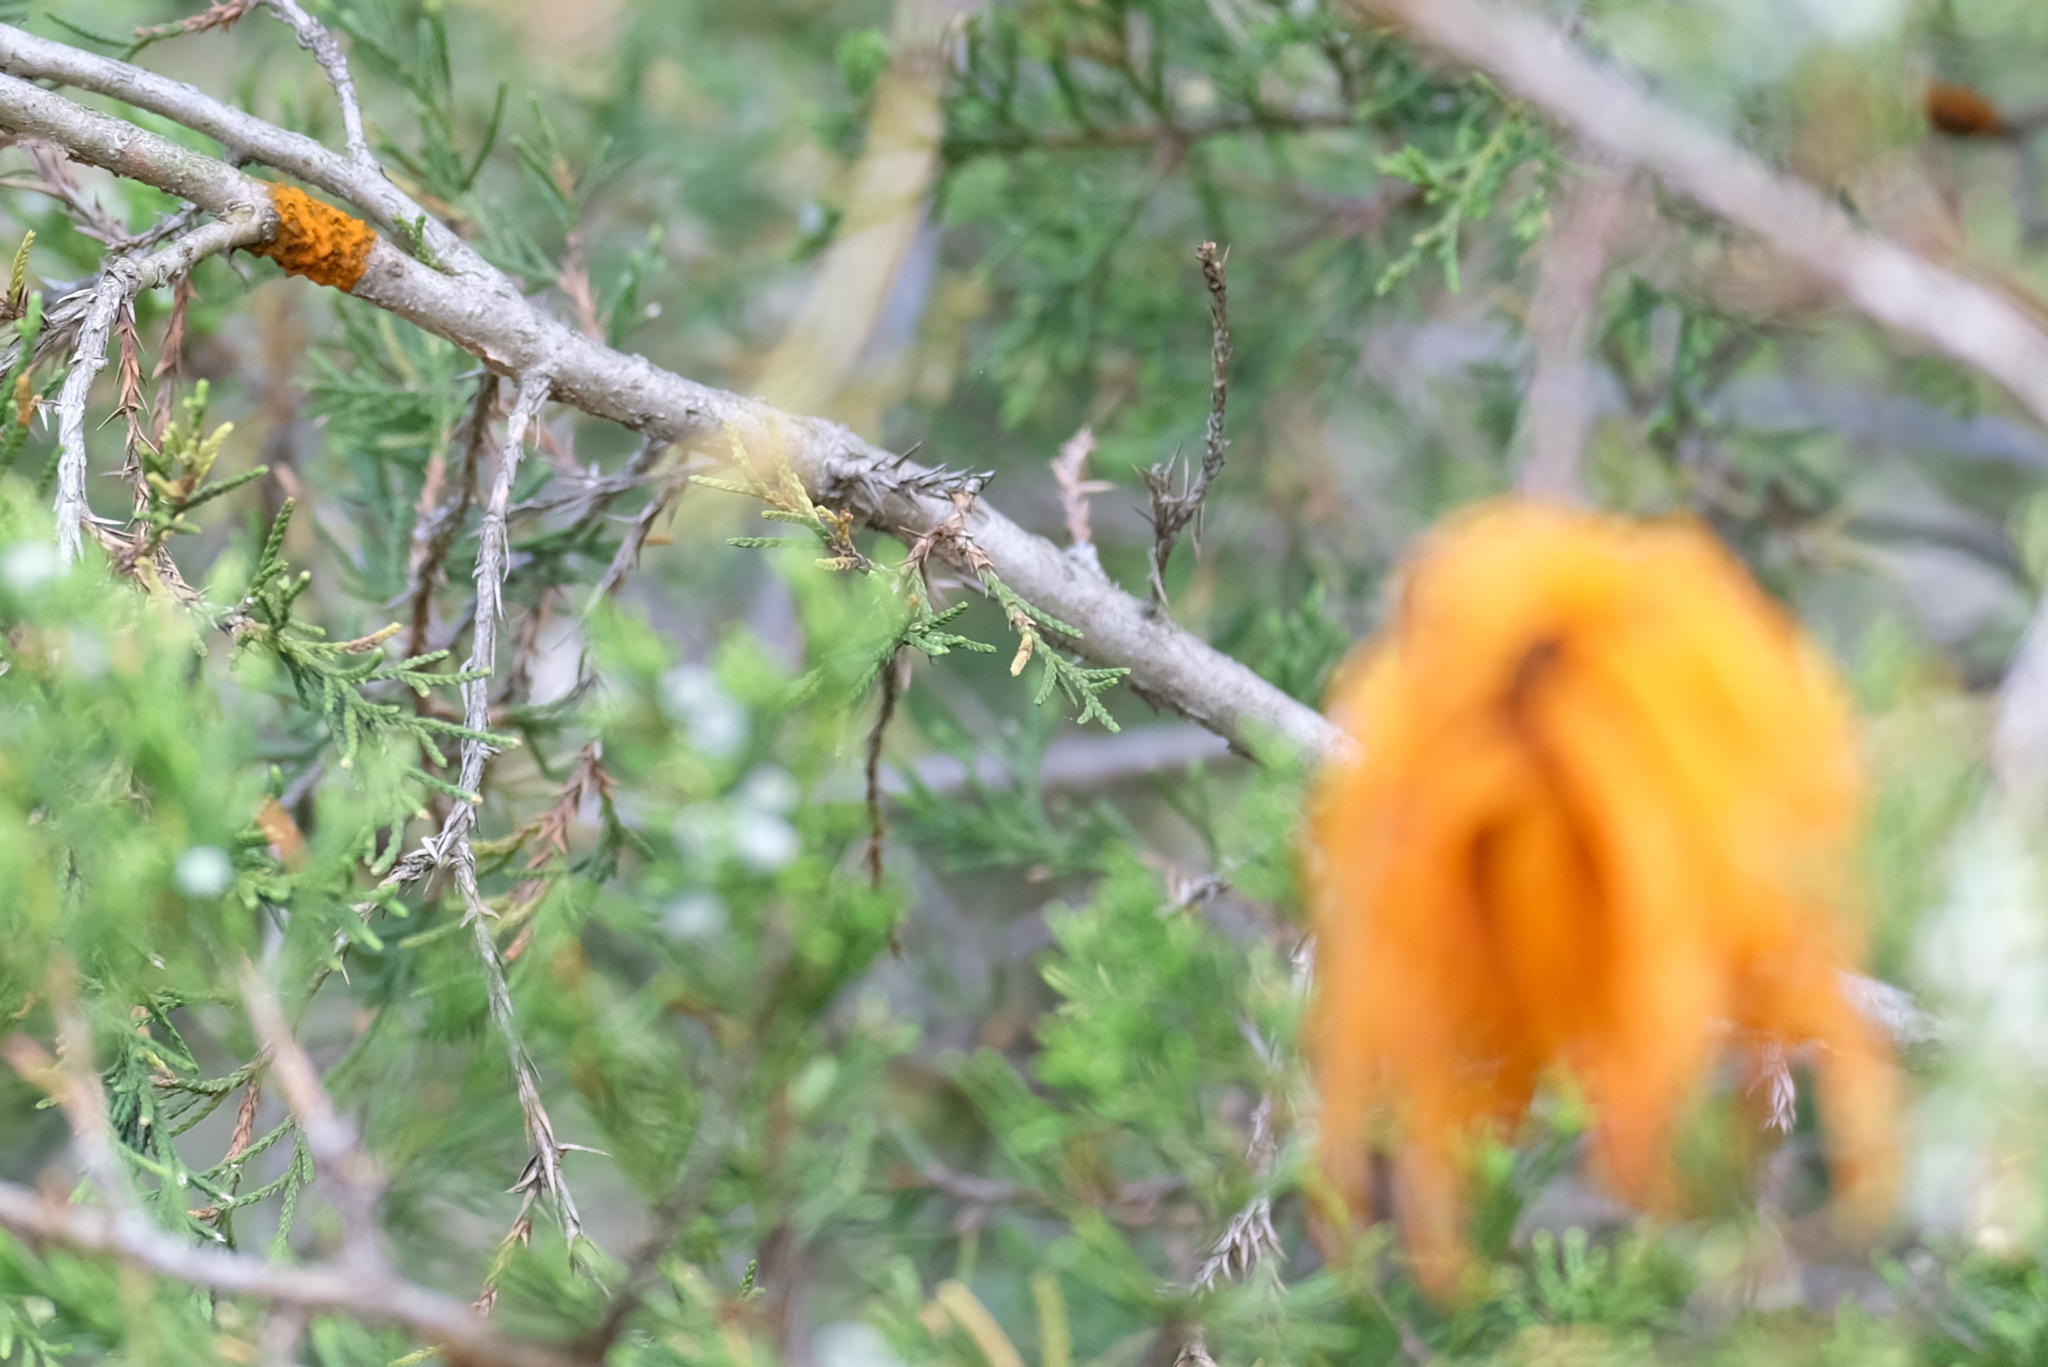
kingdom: Fungi
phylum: Basidiomycota
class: Pucciniomycetes
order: Pucciniales
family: Gymnosporangiaceae
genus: Gymnosporangium
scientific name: Gymnosporangium clavipes
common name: Quince rust
